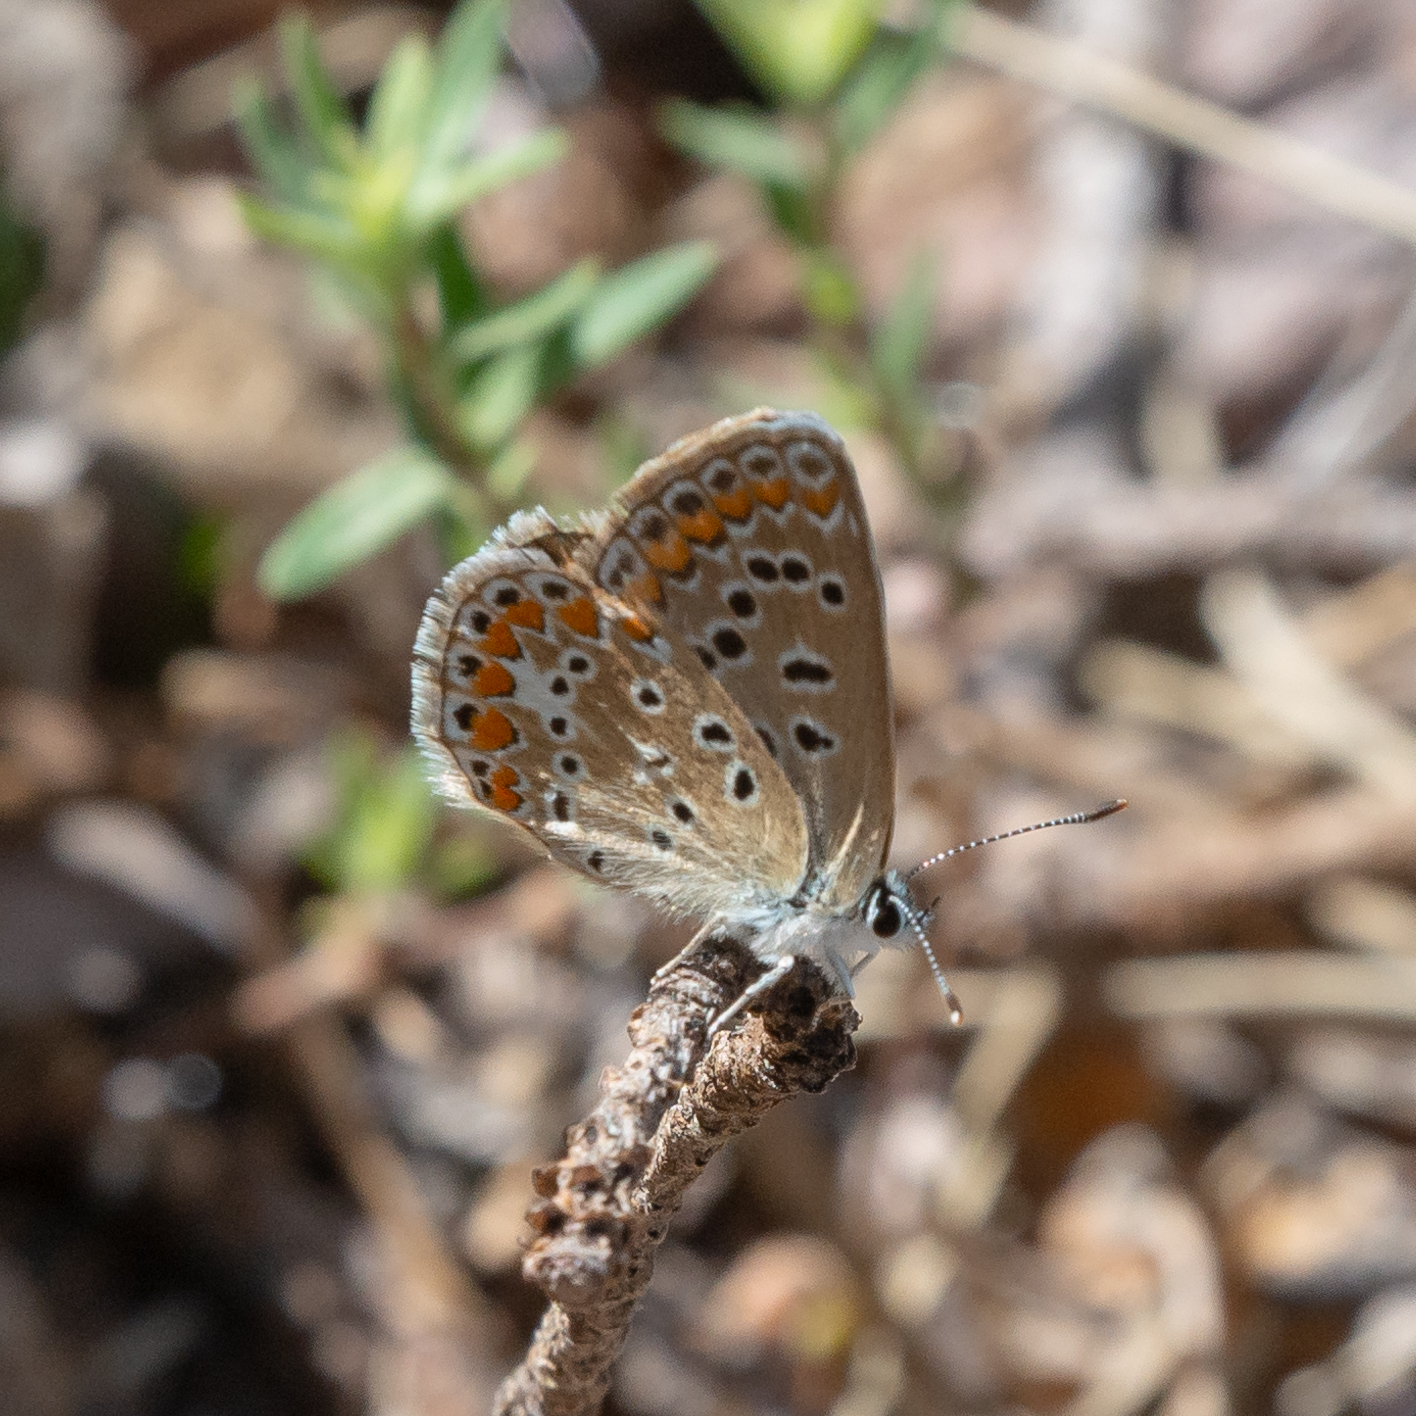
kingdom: Animalia
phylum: Arthropoda
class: Insecta
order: Lepidoptera
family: Lycaenidae
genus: Polyommatus
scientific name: Polyommatus icarus
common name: Common blue
